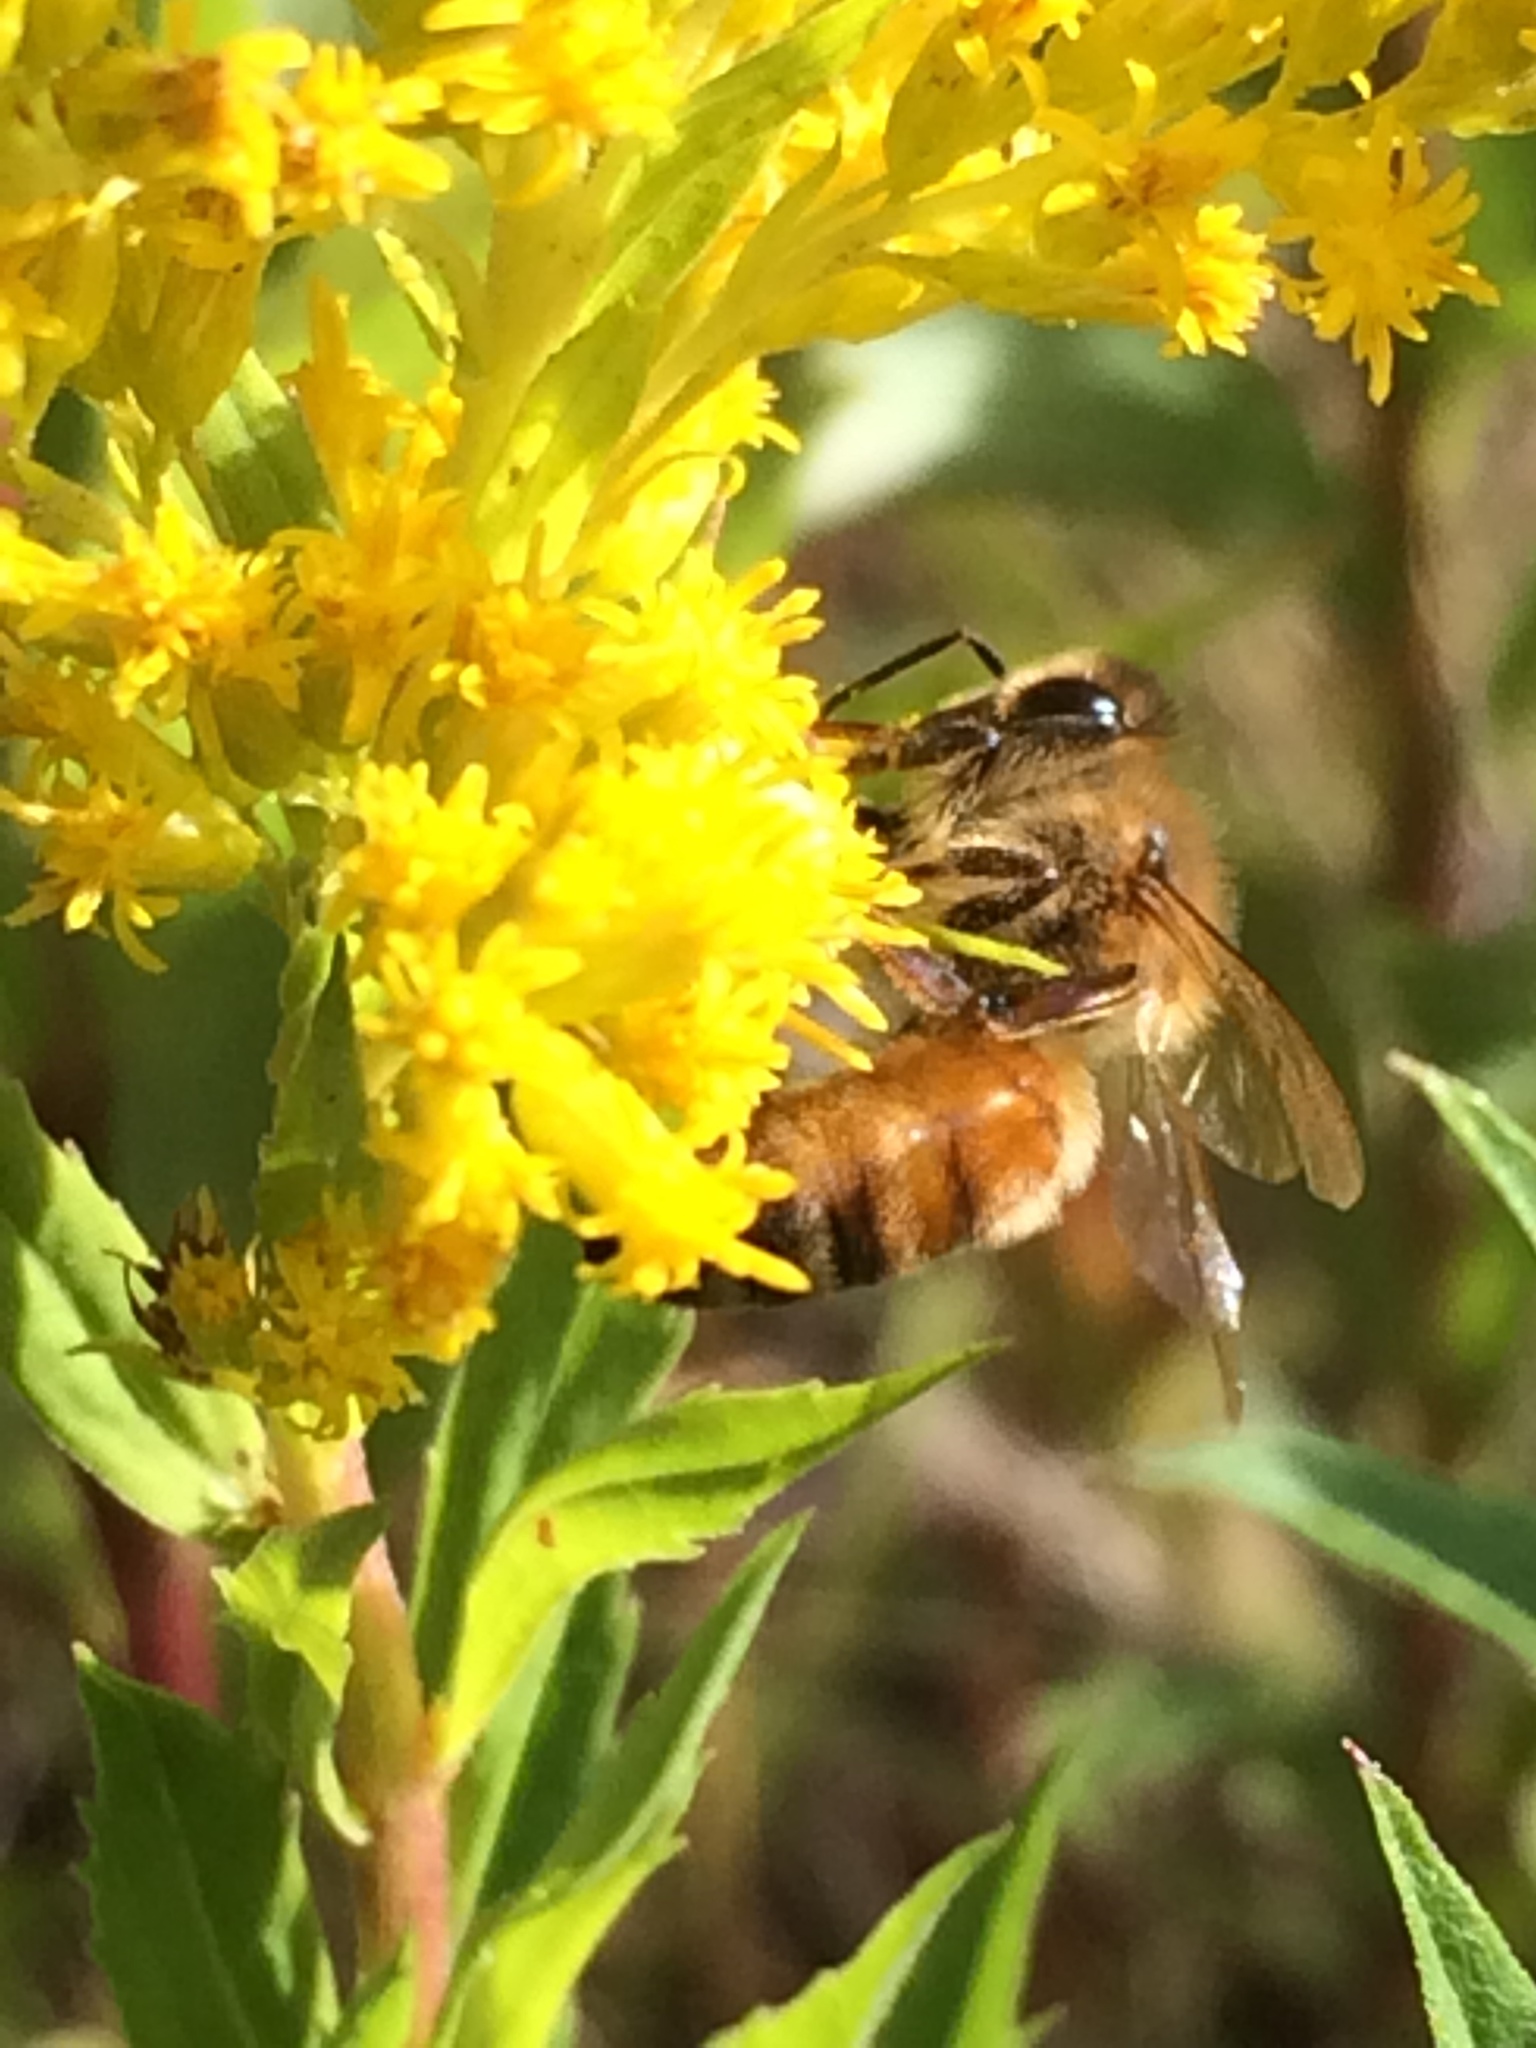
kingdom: Animalia
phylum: Arthropoda
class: Insecta
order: Hymenoptera
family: Apidae
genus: Apis
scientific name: Apis mellifera
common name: Honey bee
